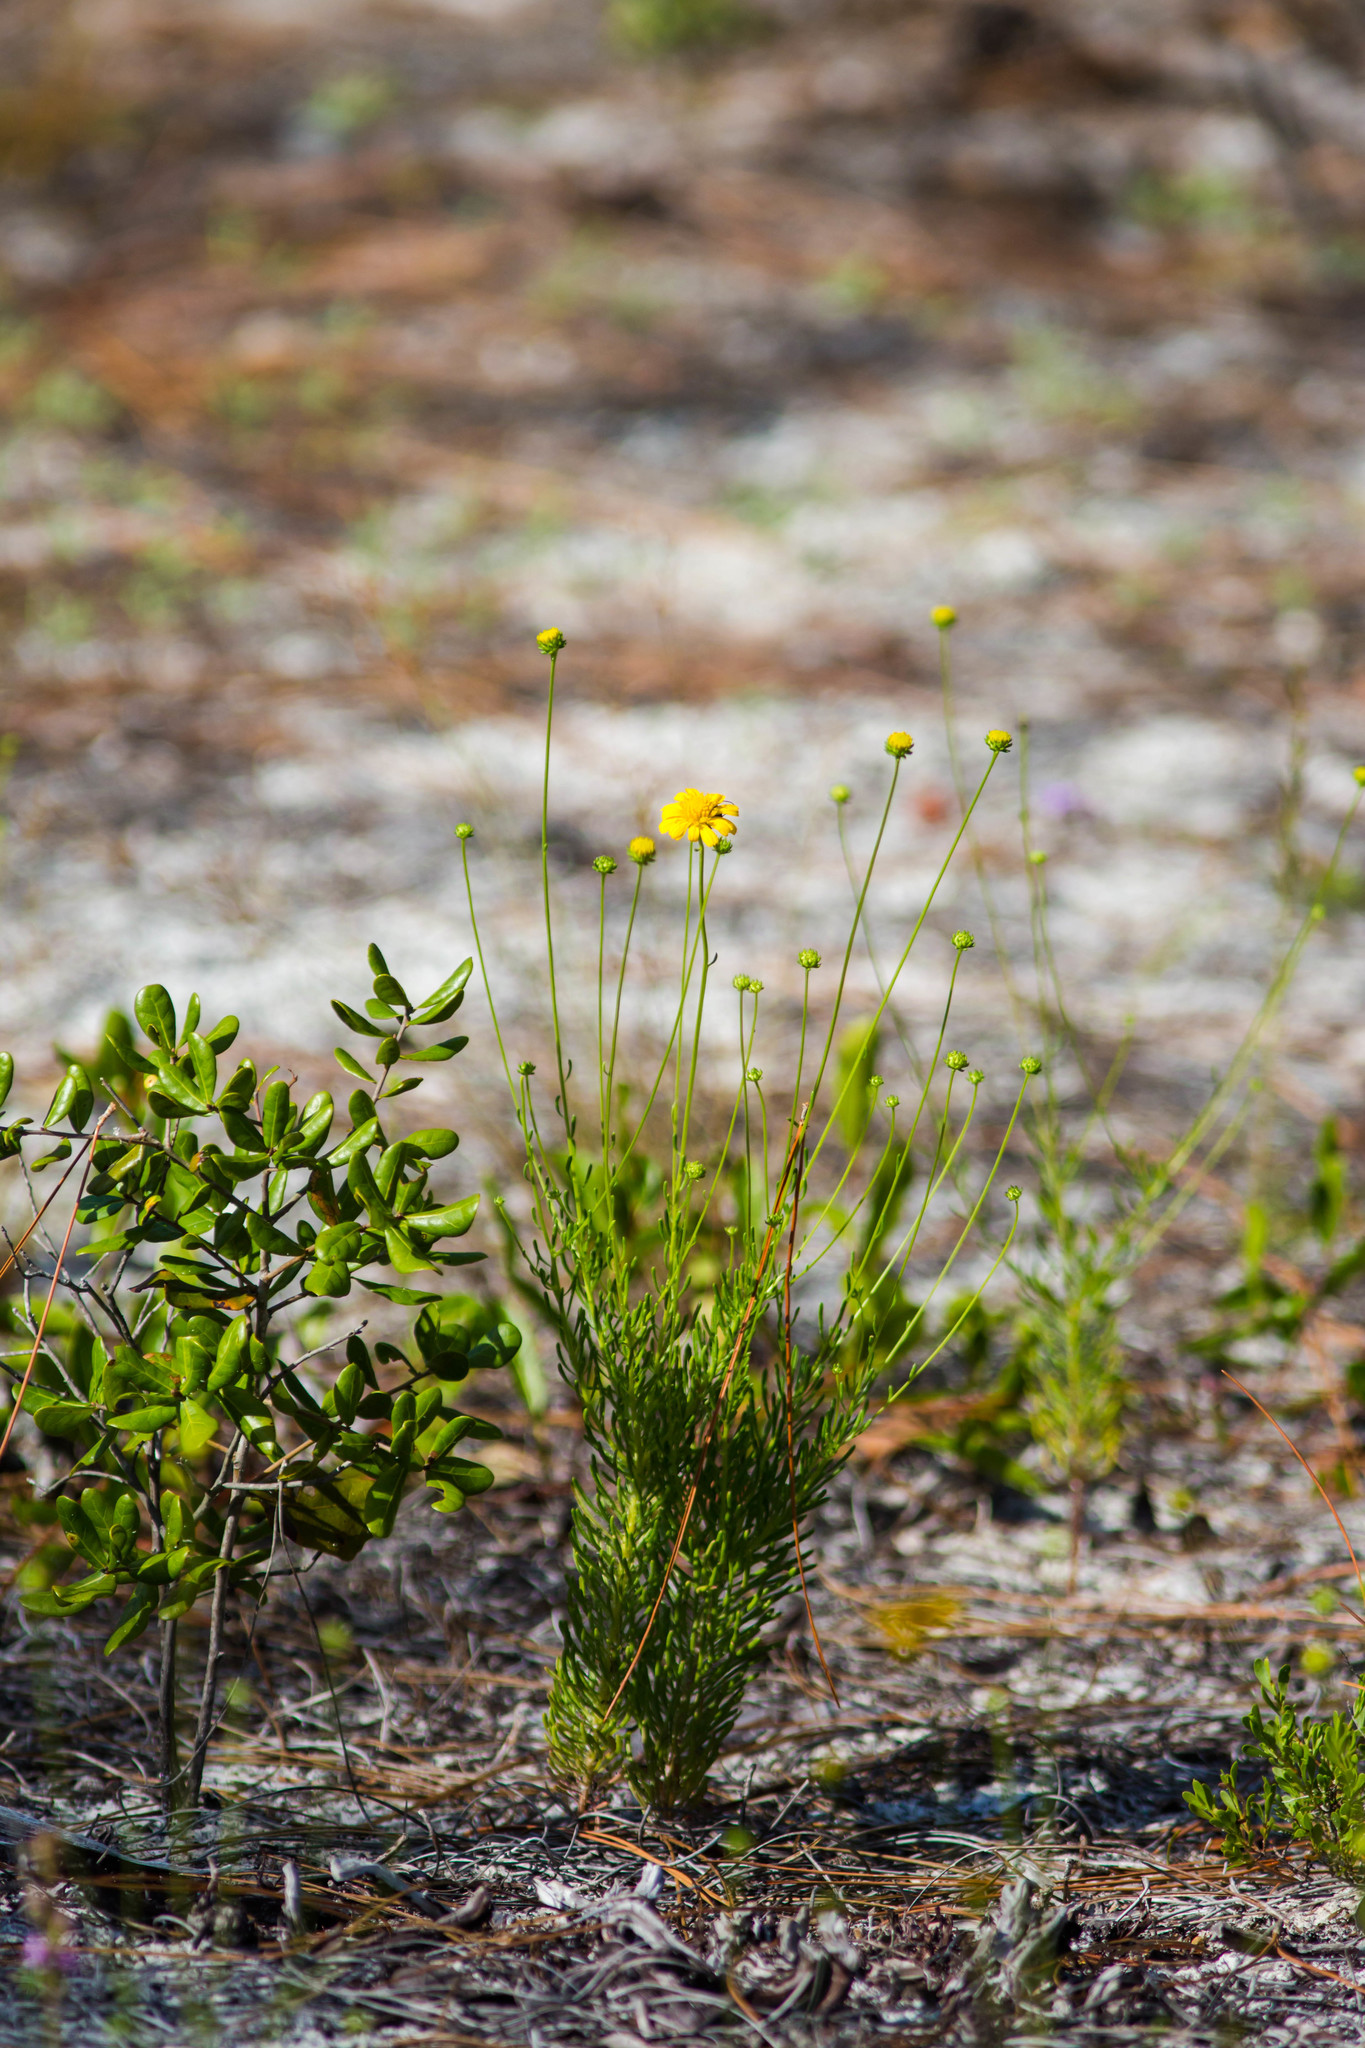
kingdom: Plantae
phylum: Tracheophyta
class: Magnoliopsida
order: Asterales
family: Asteraceae
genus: Balduina
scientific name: Balduina angustifolia
